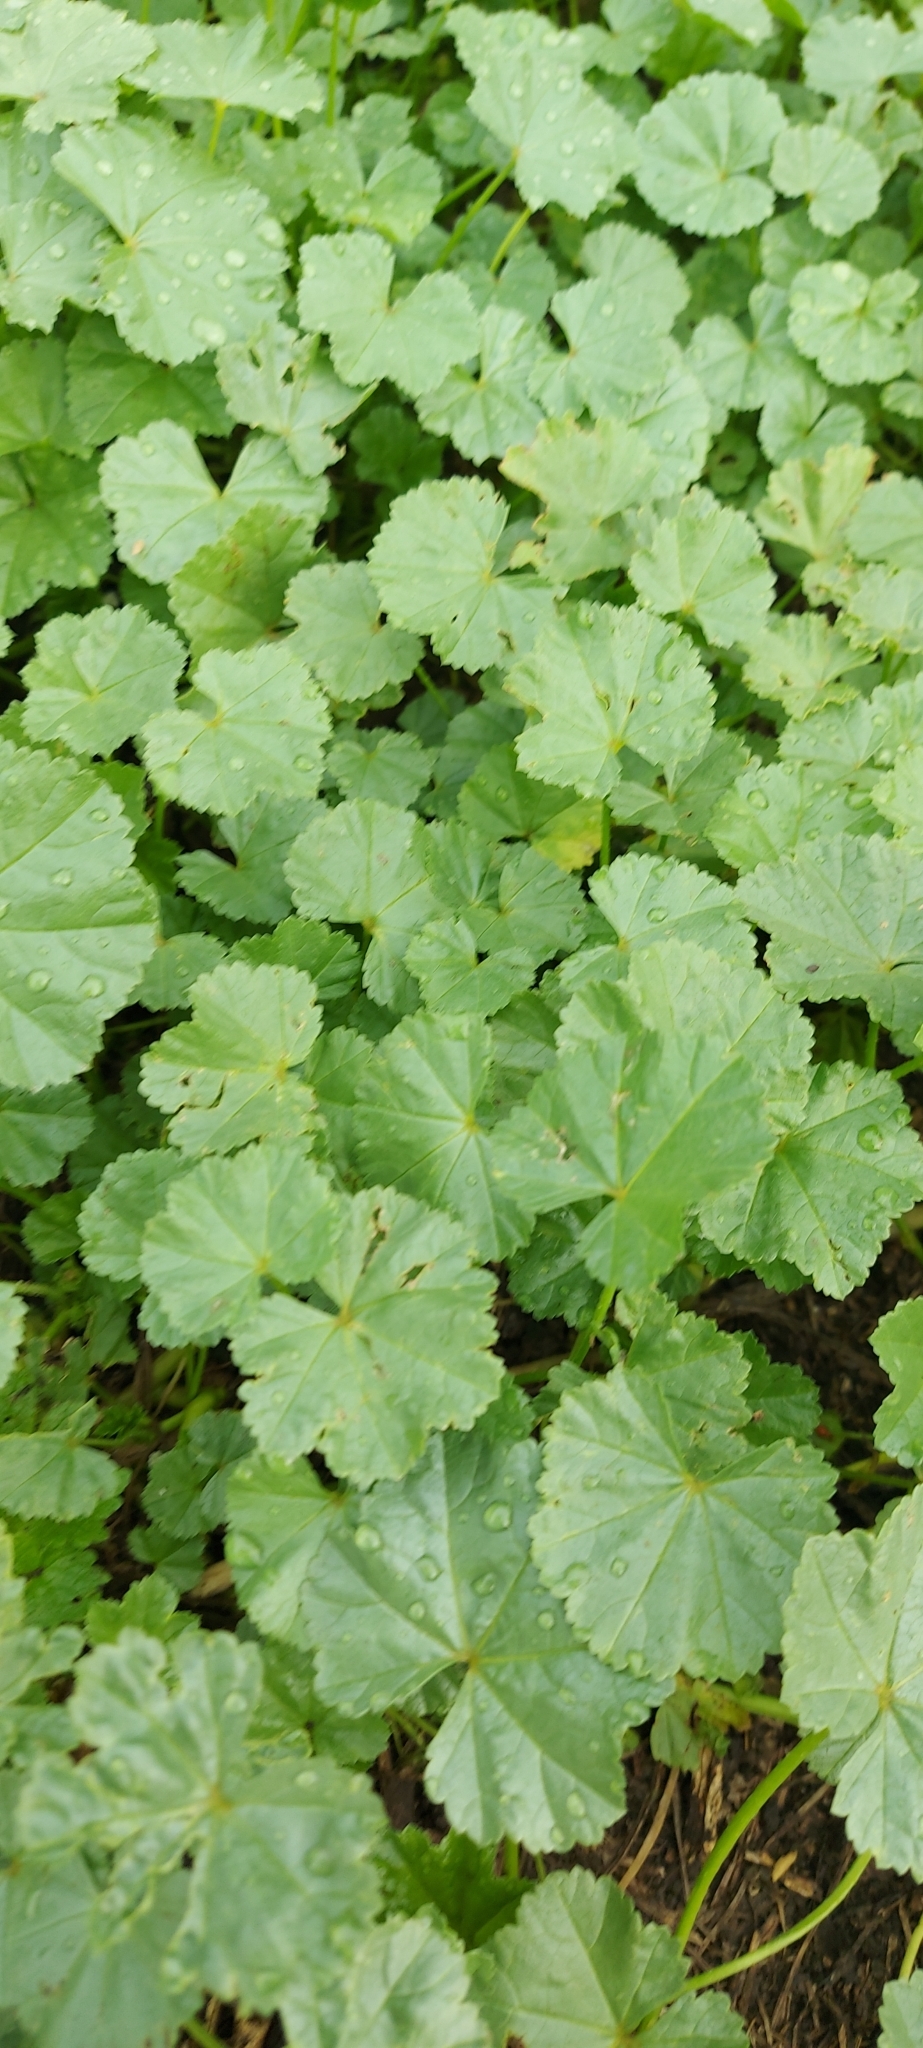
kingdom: Plantae
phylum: Tracheophyta
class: Magnoliopsida
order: Malvales
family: Malvaceae
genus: Malva
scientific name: Malva pusilla
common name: Small mallow
